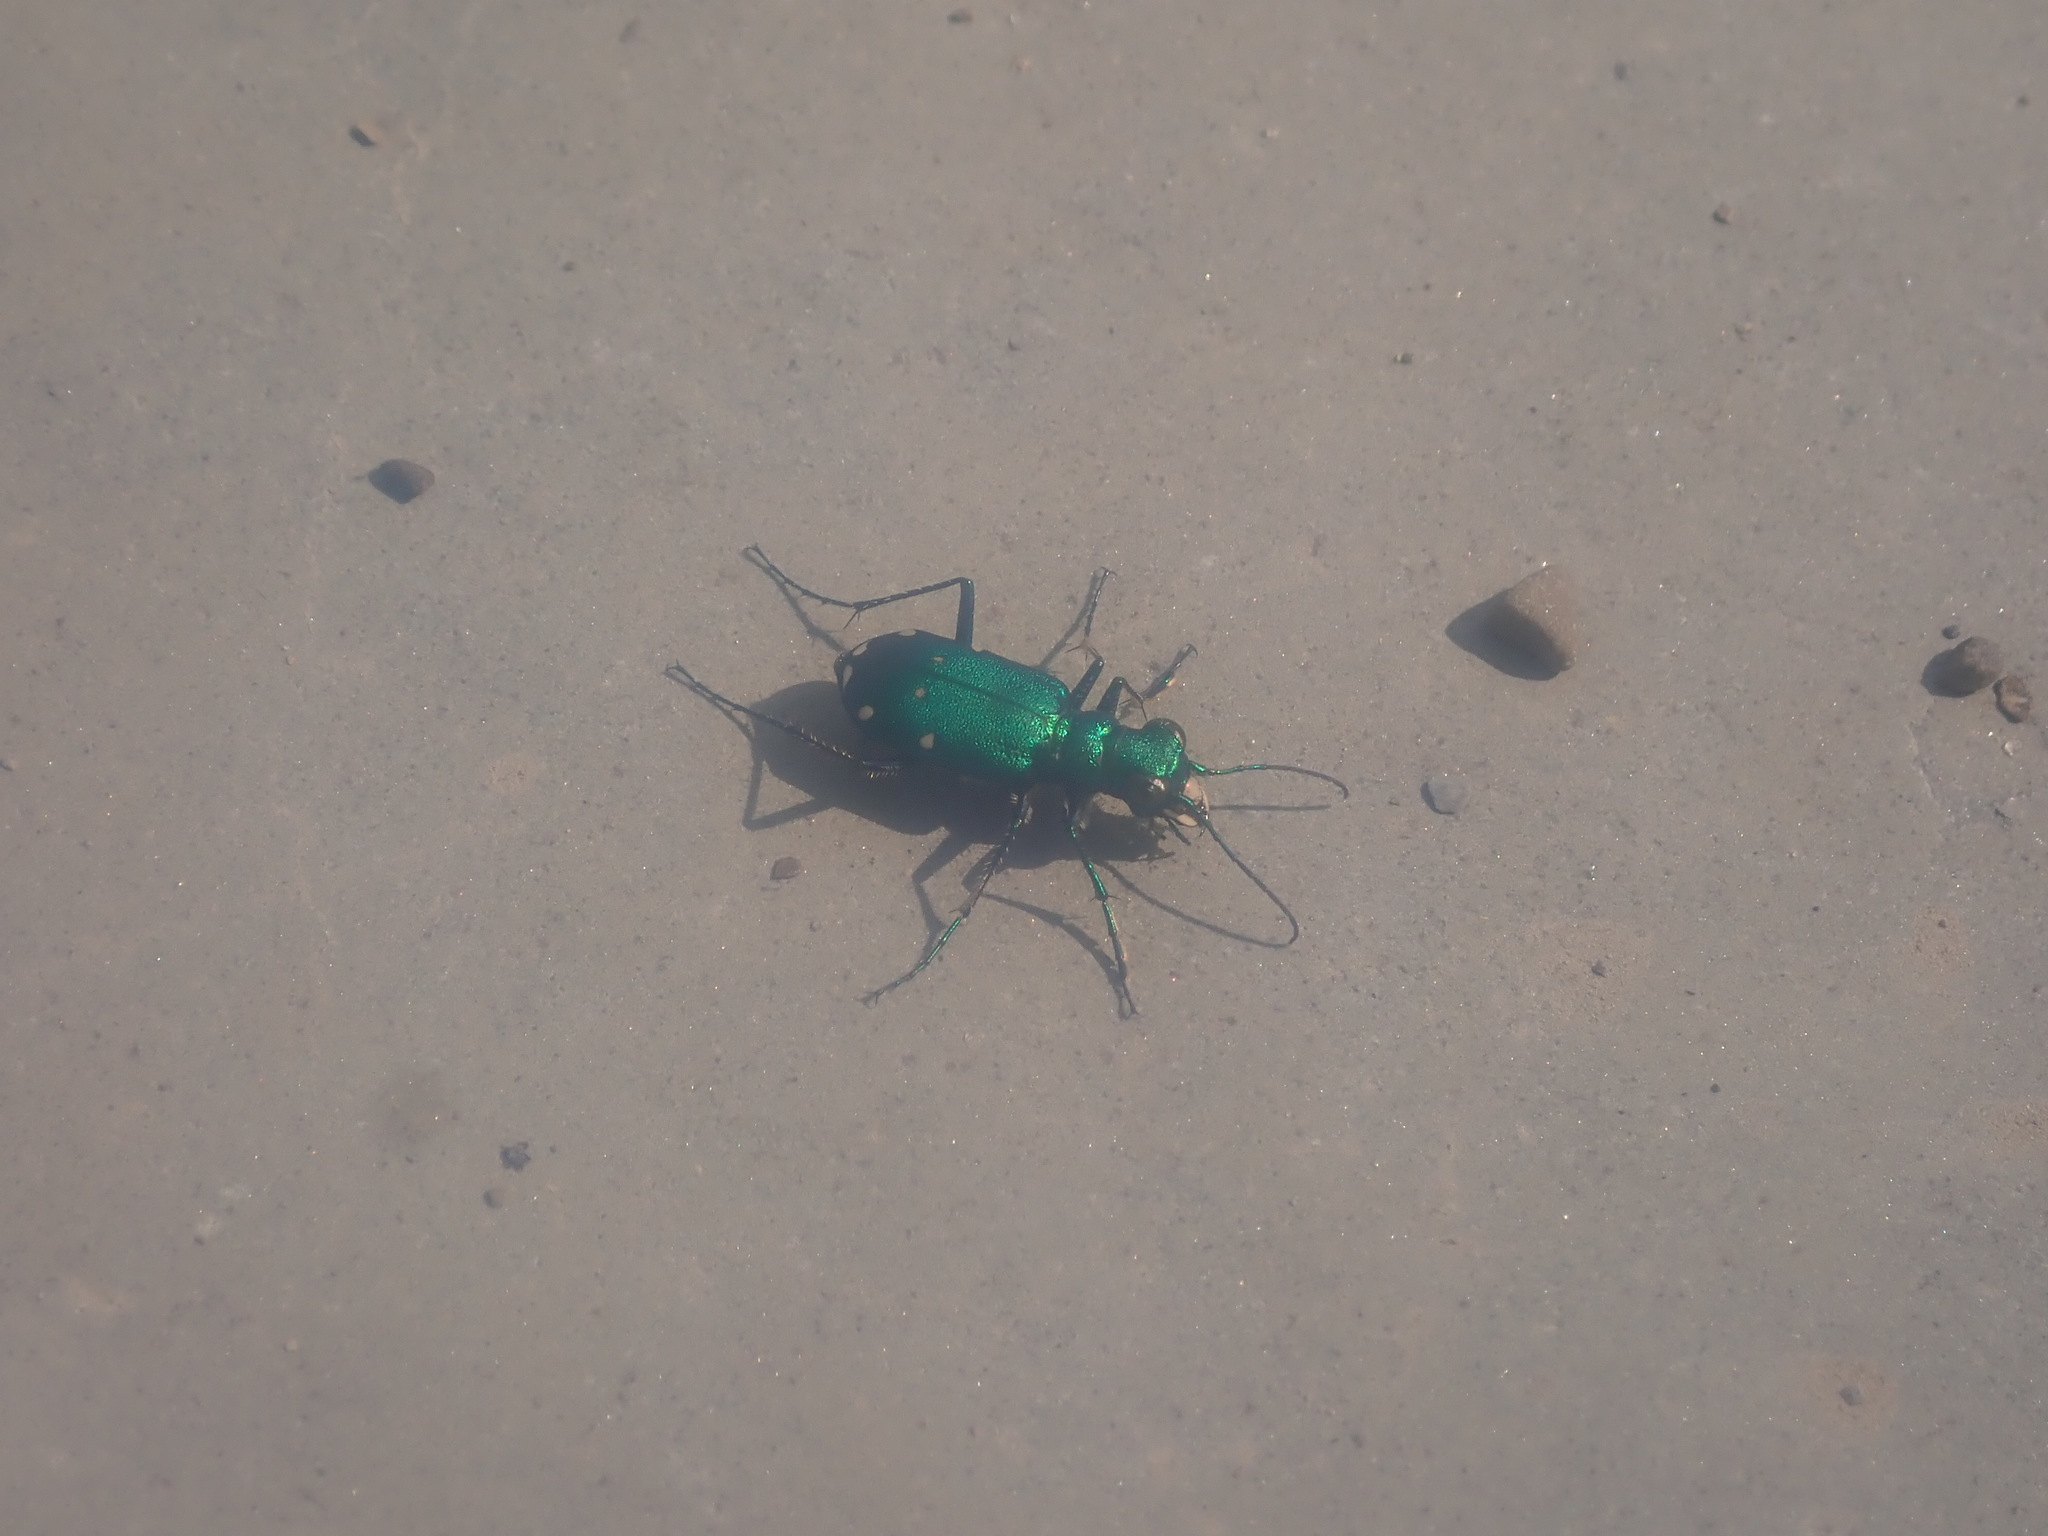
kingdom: Animalia
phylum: Arthropoda
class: Insecta
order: Coleoptera
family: Carabidae
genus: Cicindela
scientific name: Cicindela sexguttata
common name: Six-spotted tiger beetle
